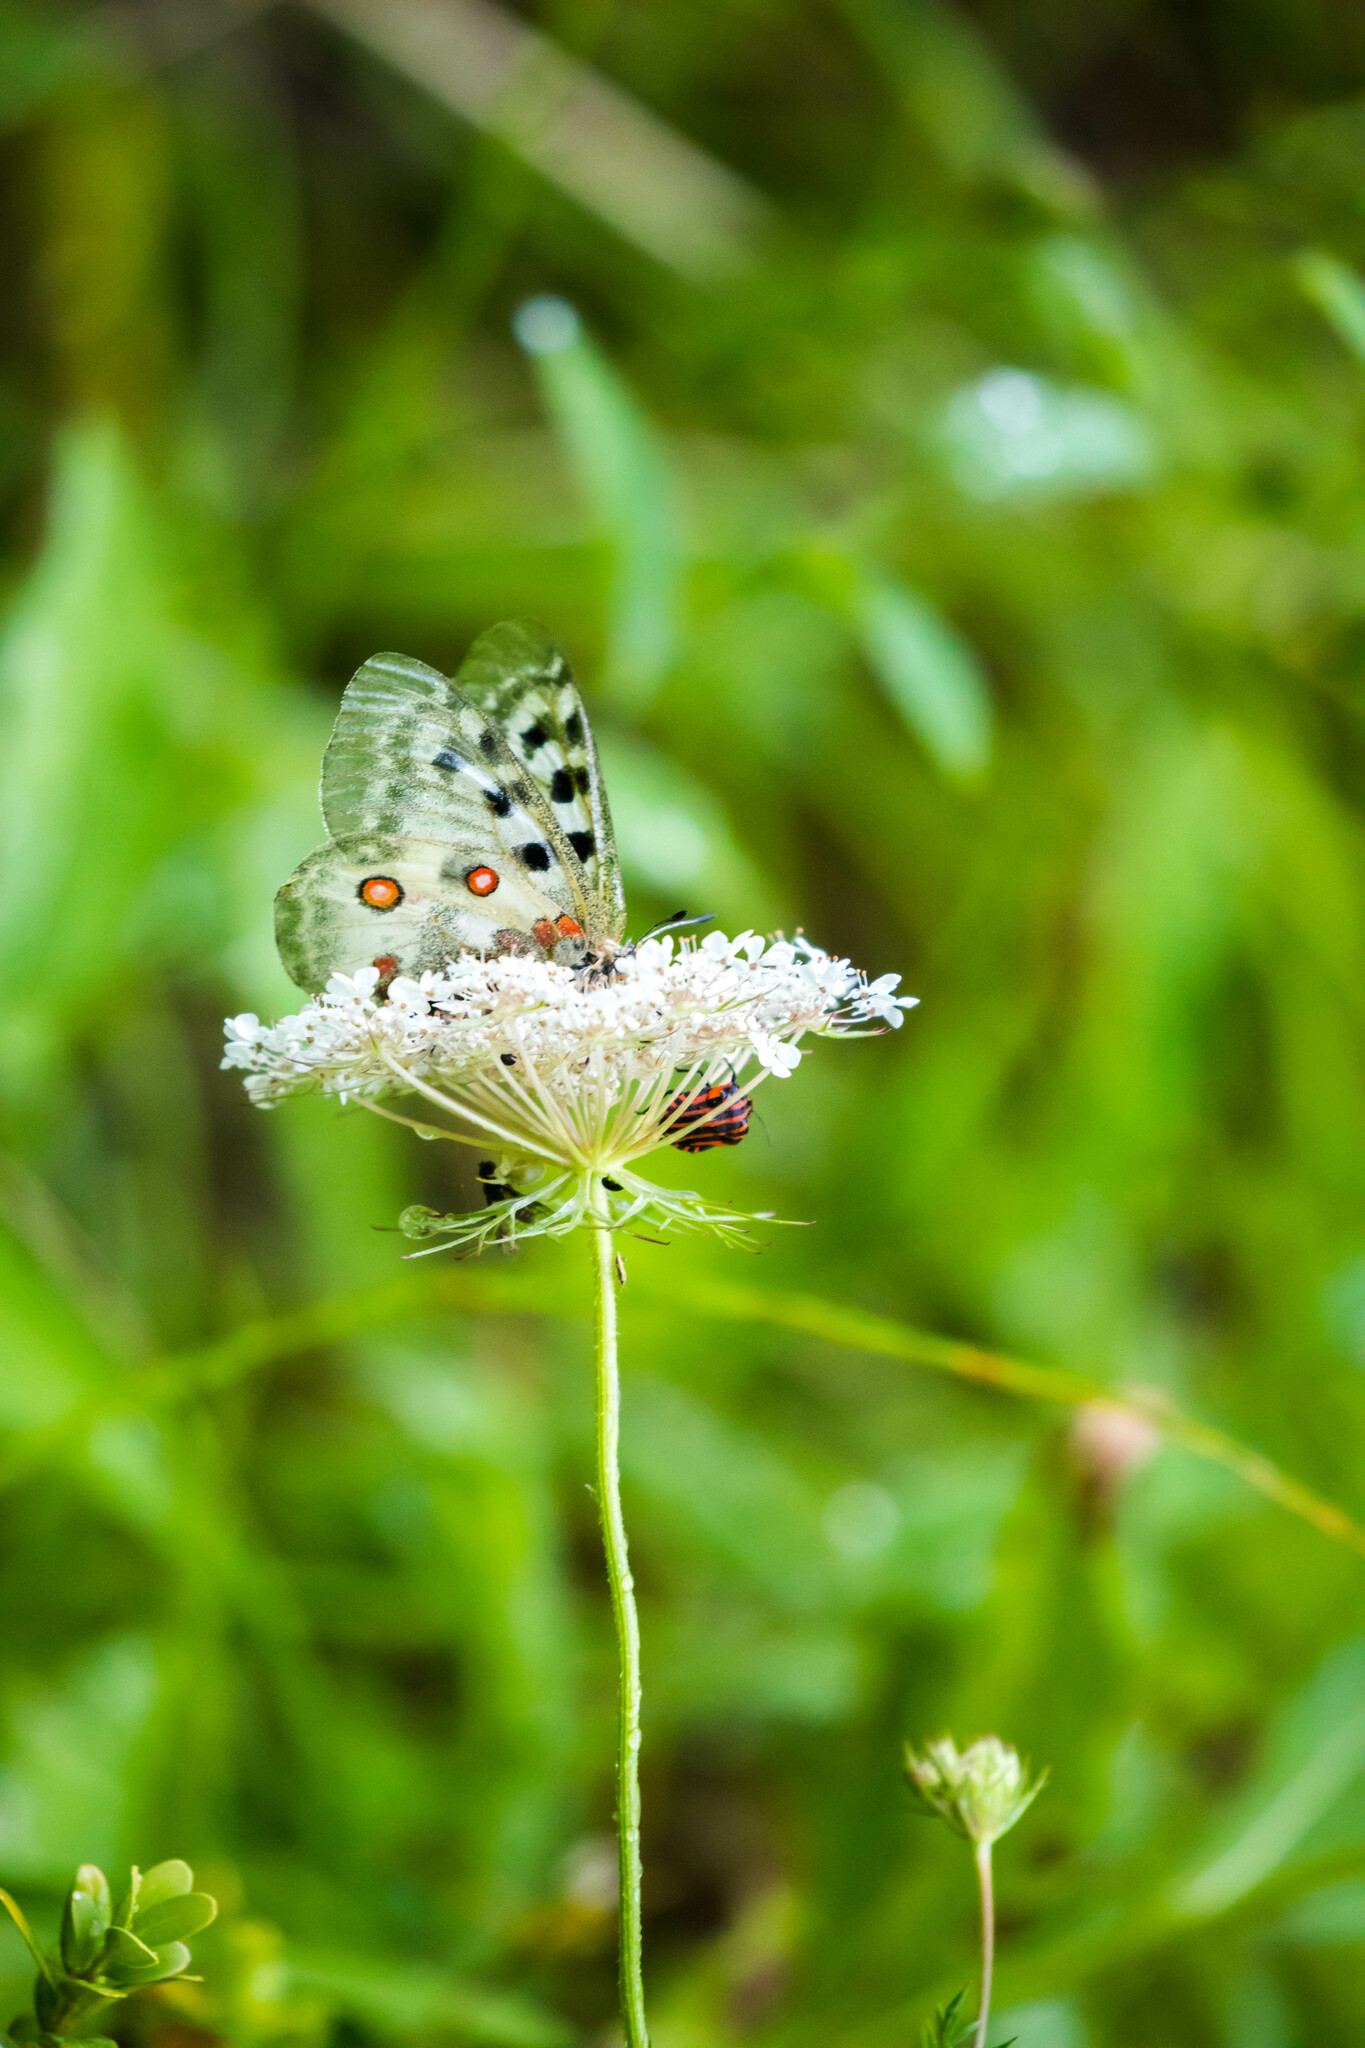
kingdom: Animalia
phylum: Arthropoda
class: Insecta
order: Lepidoptera
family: Papilionidae
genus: Parnassius
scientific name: Parnassius apollo
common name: Apollo
